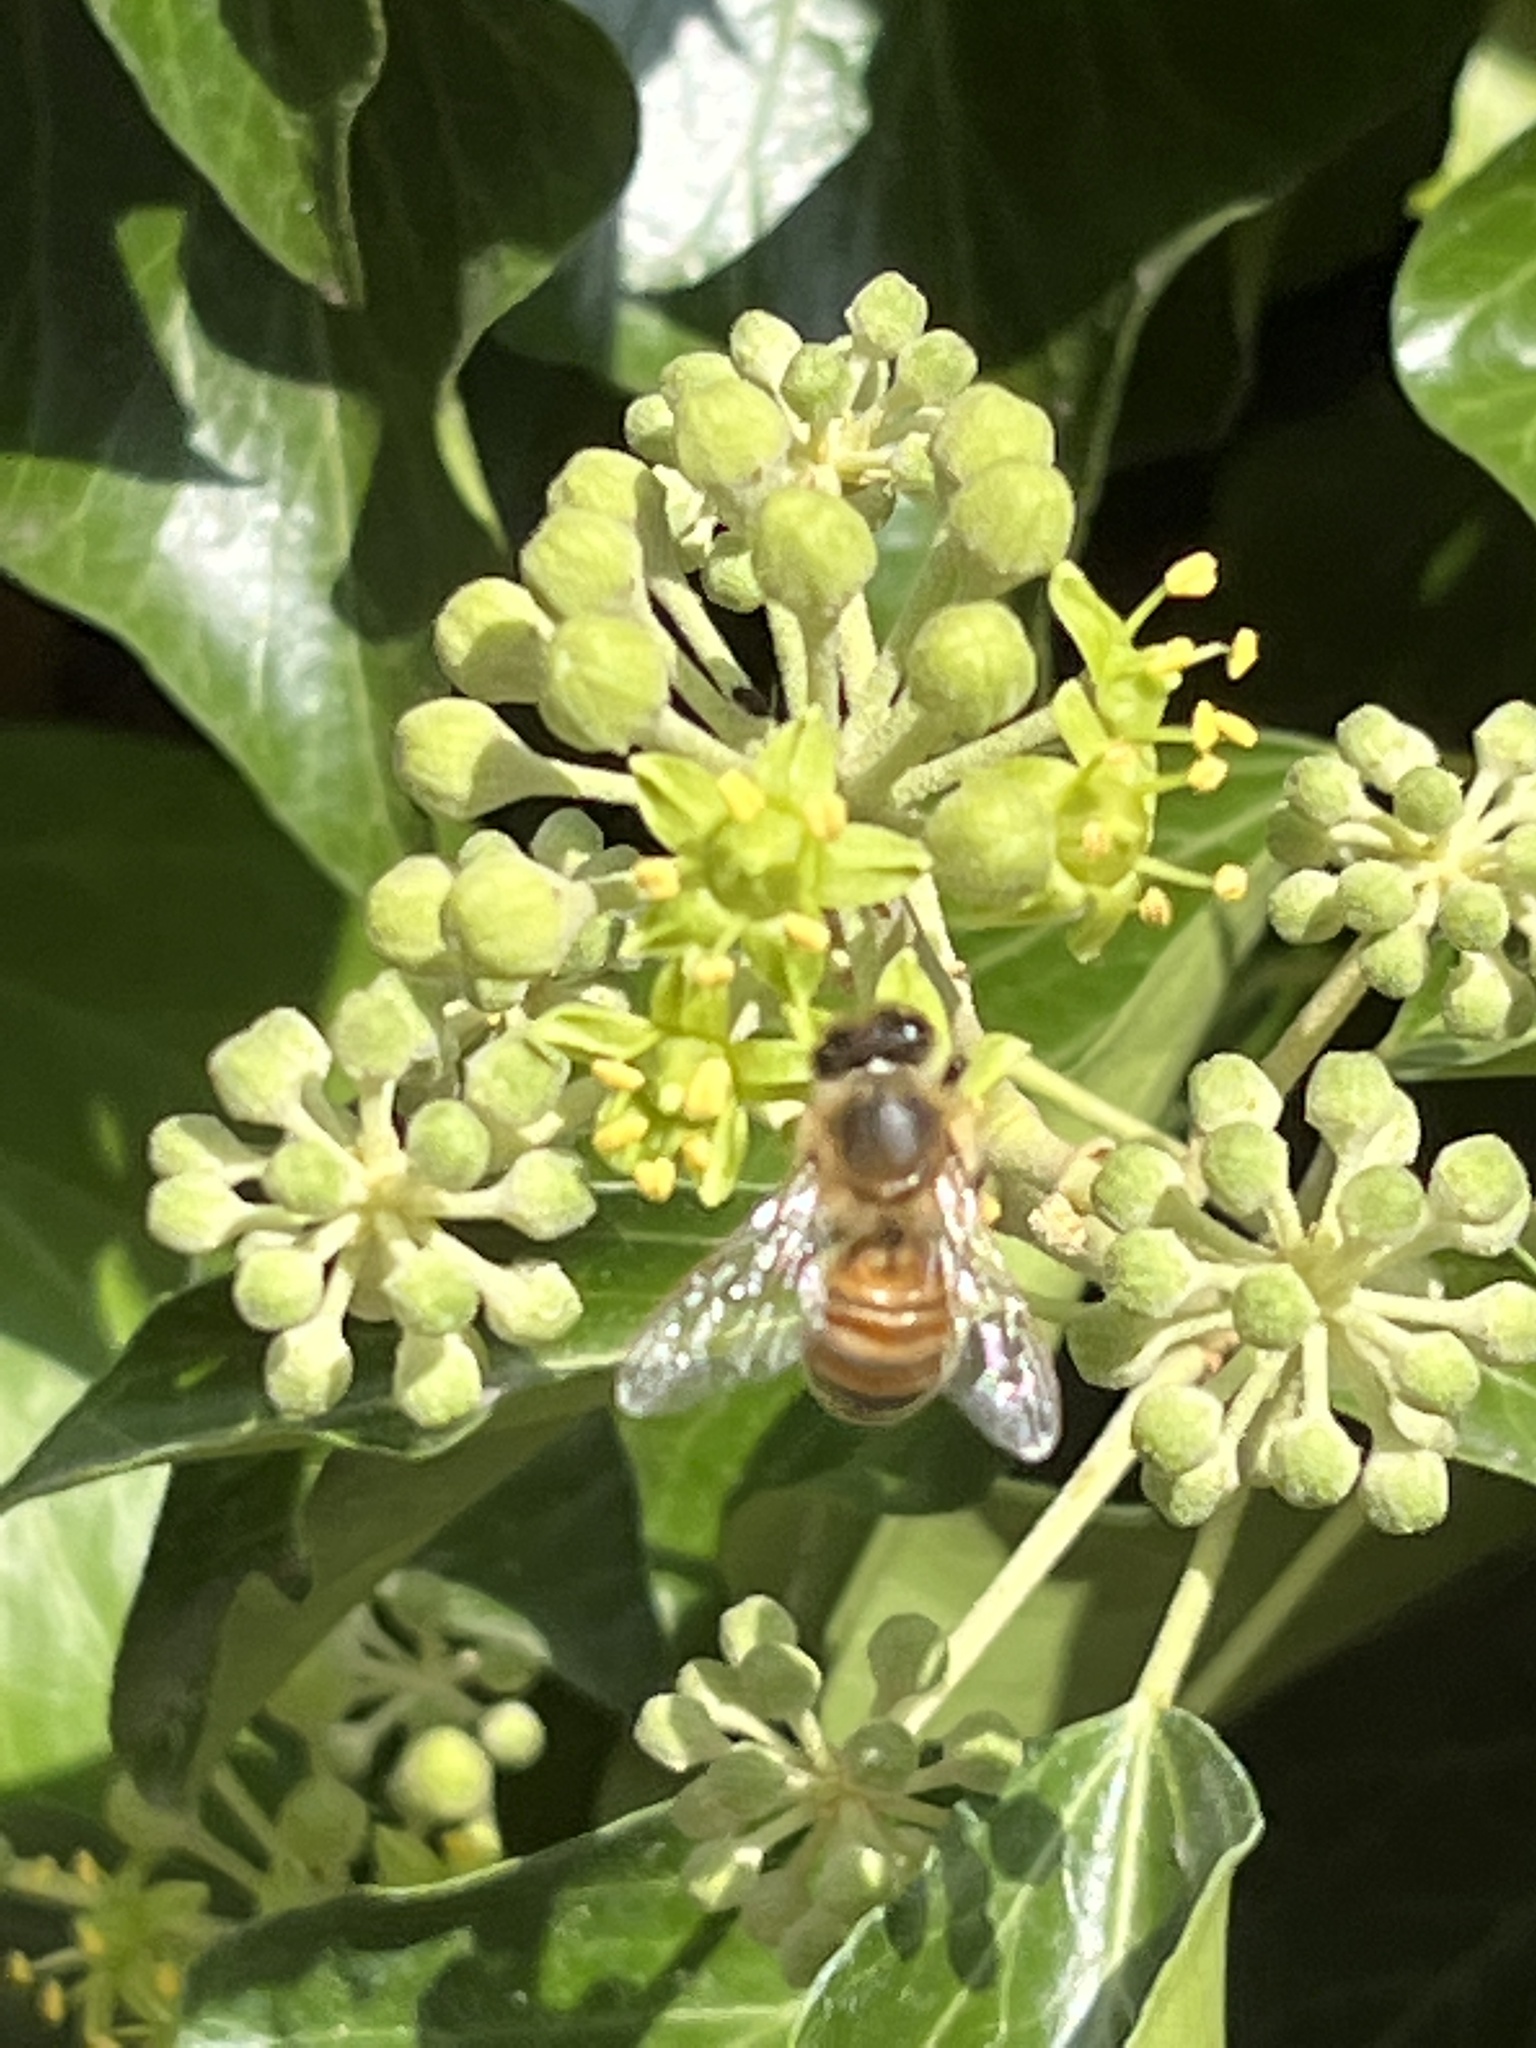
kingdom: Animalia
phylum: Arthropoda
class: Insecta
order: Hymenoptera
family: Apidae
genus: Apis
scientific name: Apis mellifera
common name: Honey bee
